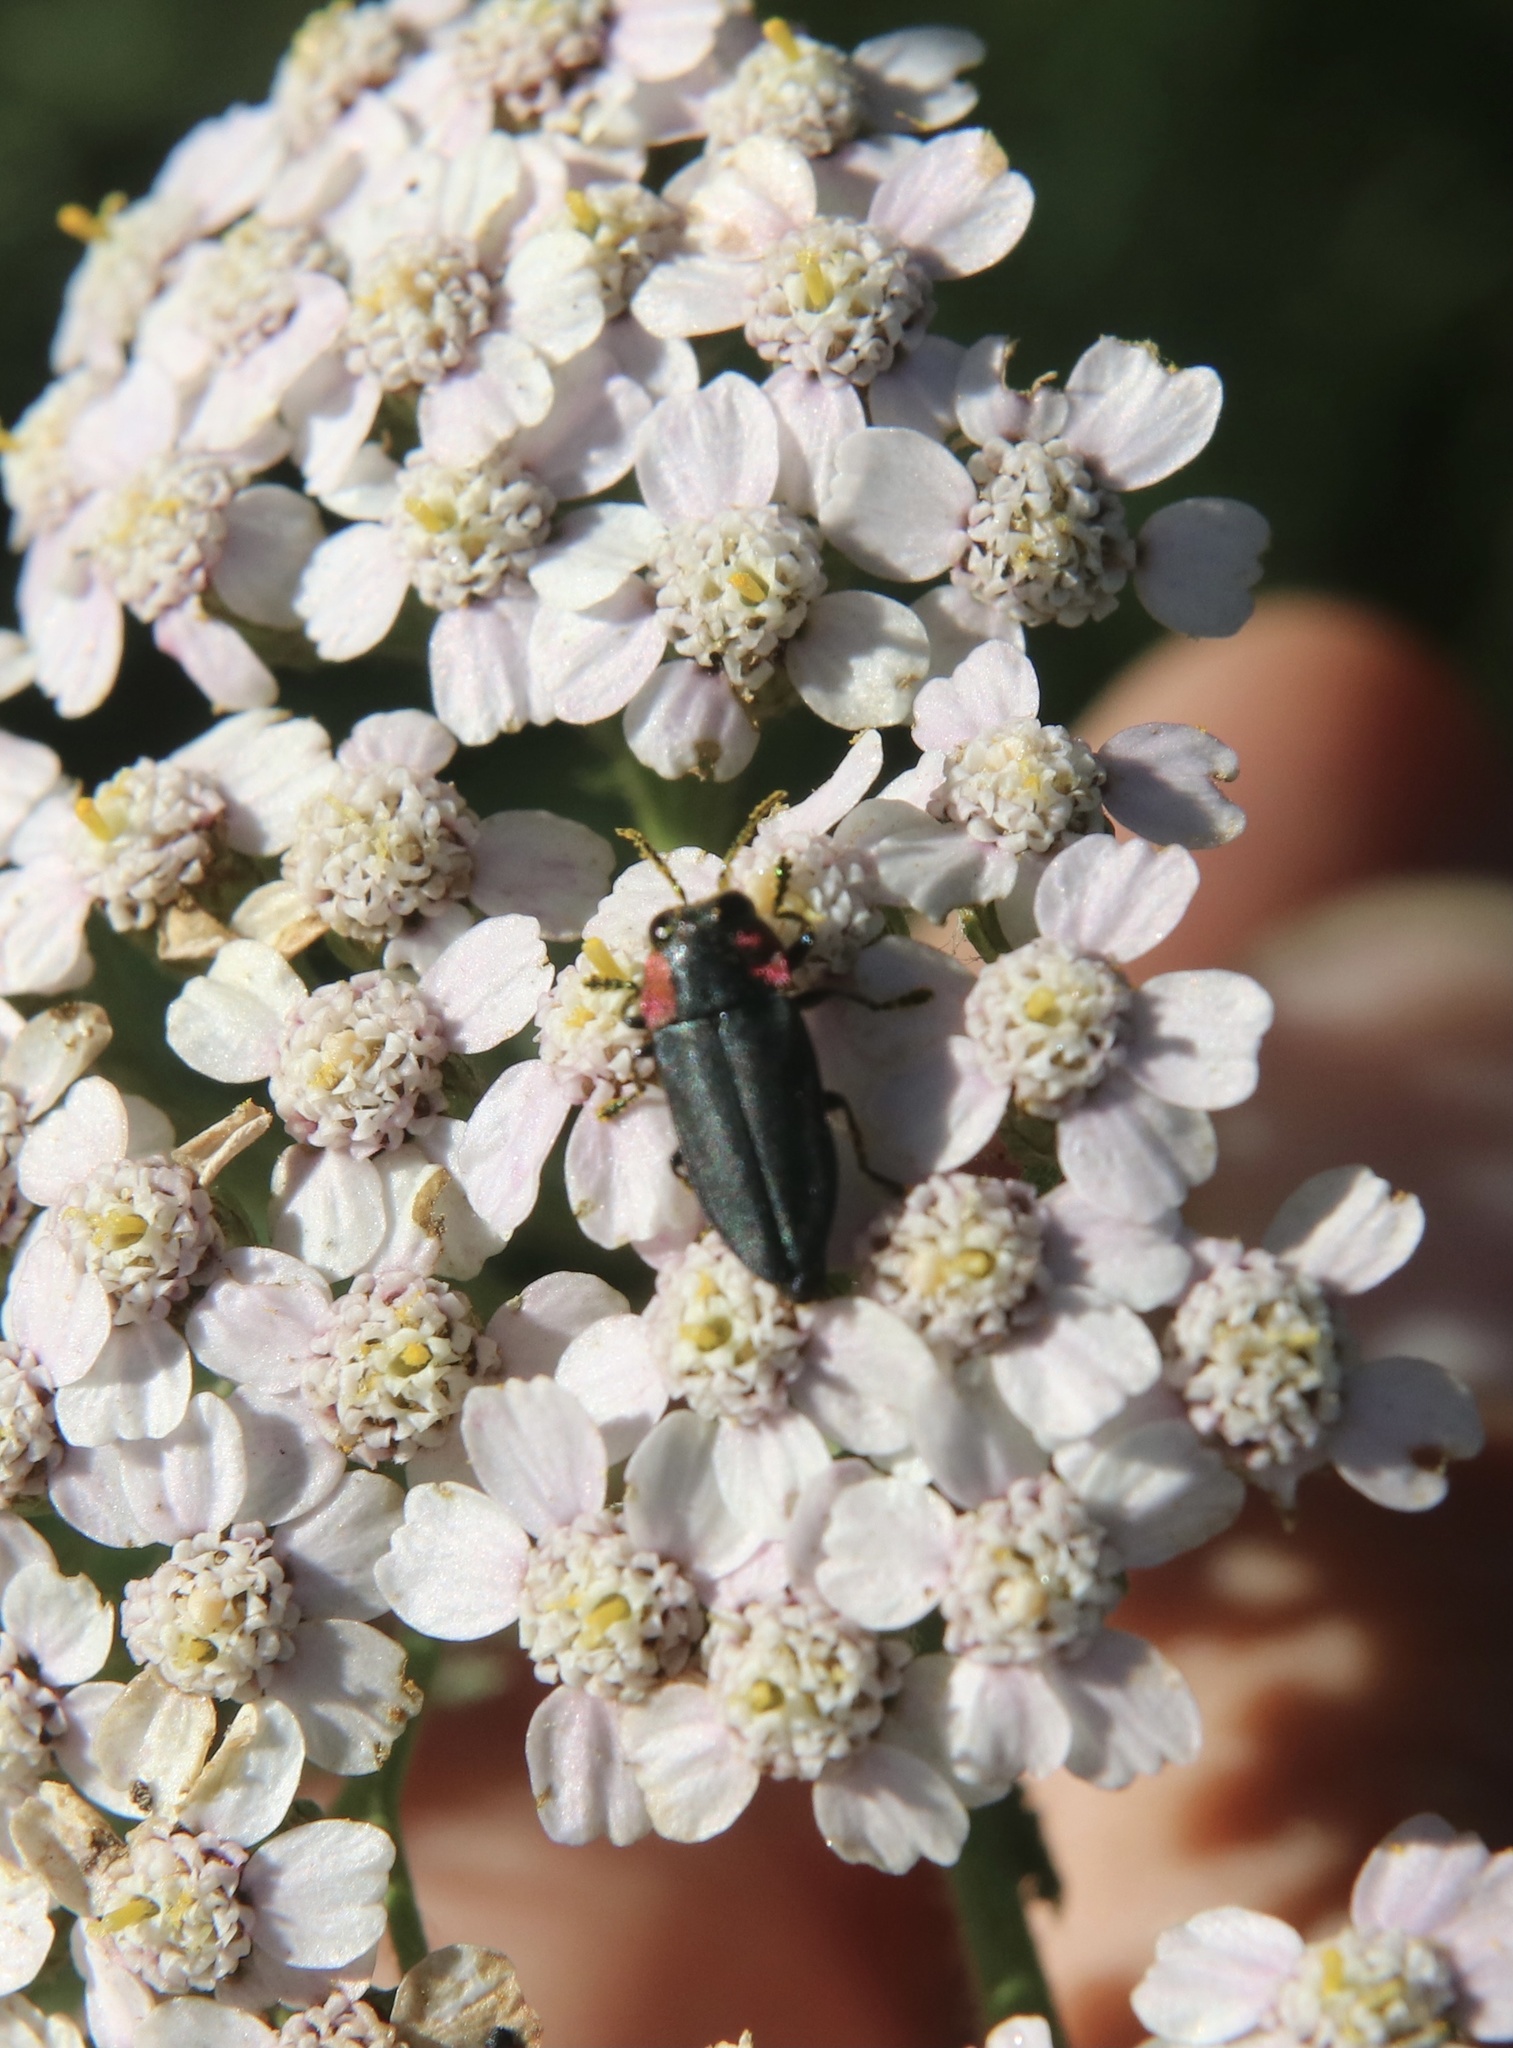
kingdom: Animalia
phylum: Arthropoda
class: Insecta
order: Coleoptera
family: Buprestidae
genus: Romanophora
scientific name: Romanophora verecunda
